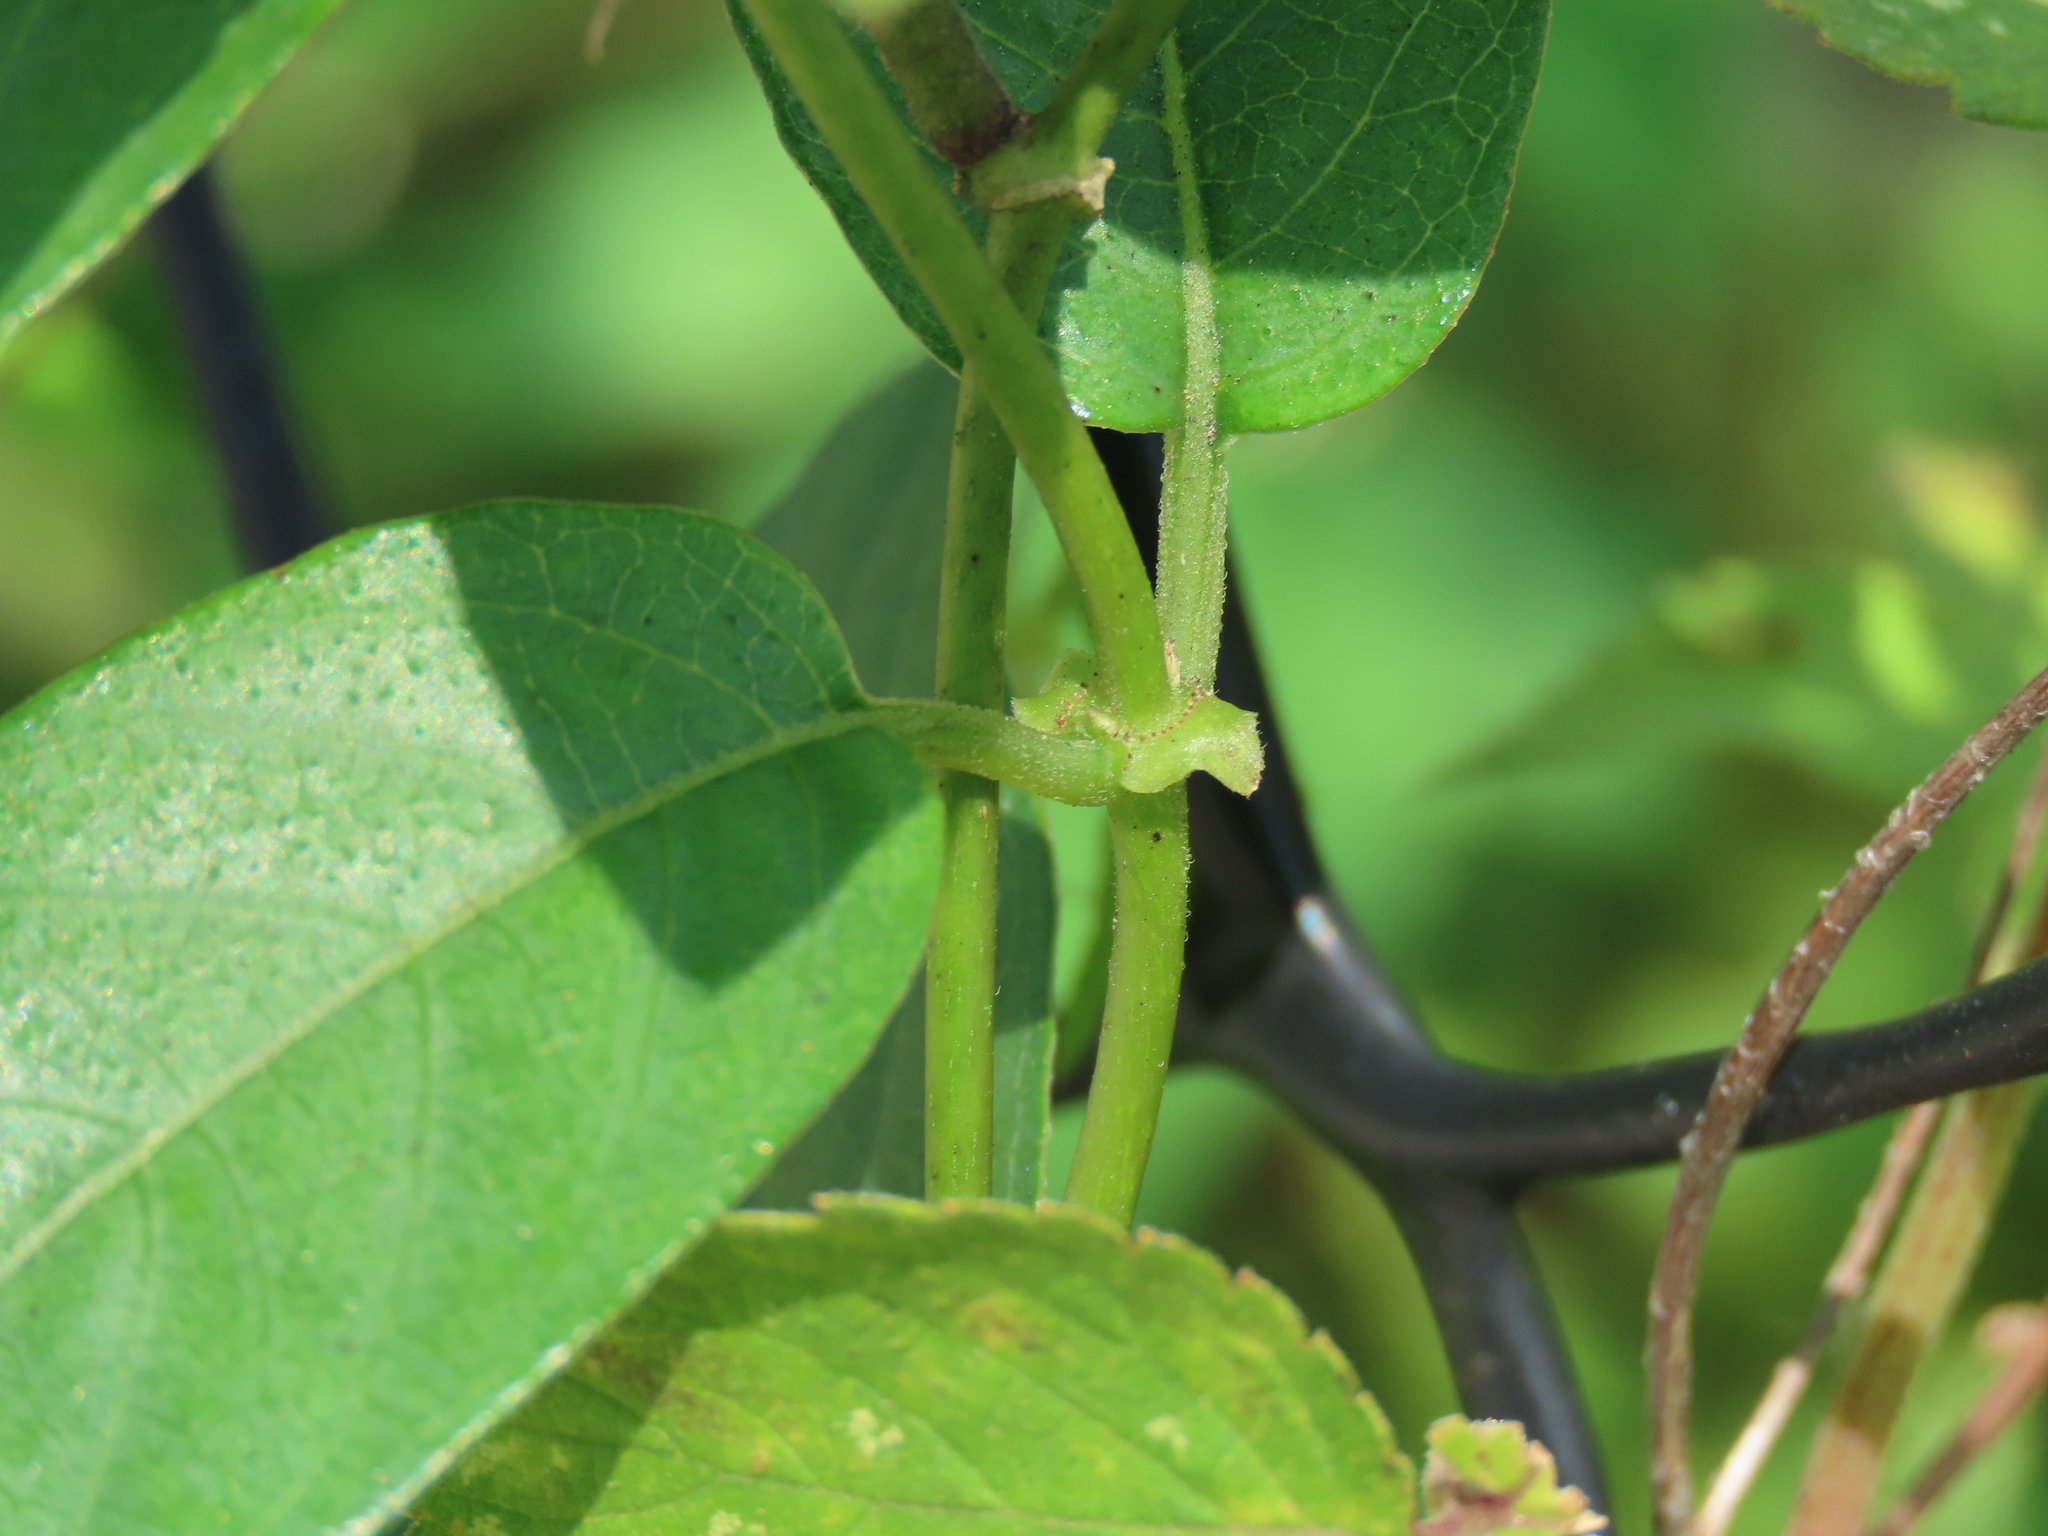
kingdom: Plantae
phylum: Tracheophyta
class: Magnoliopsida
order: Gentianales
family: Rubiaceae
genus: Paederia
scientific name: Paederia foetida
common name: Stinkvine
